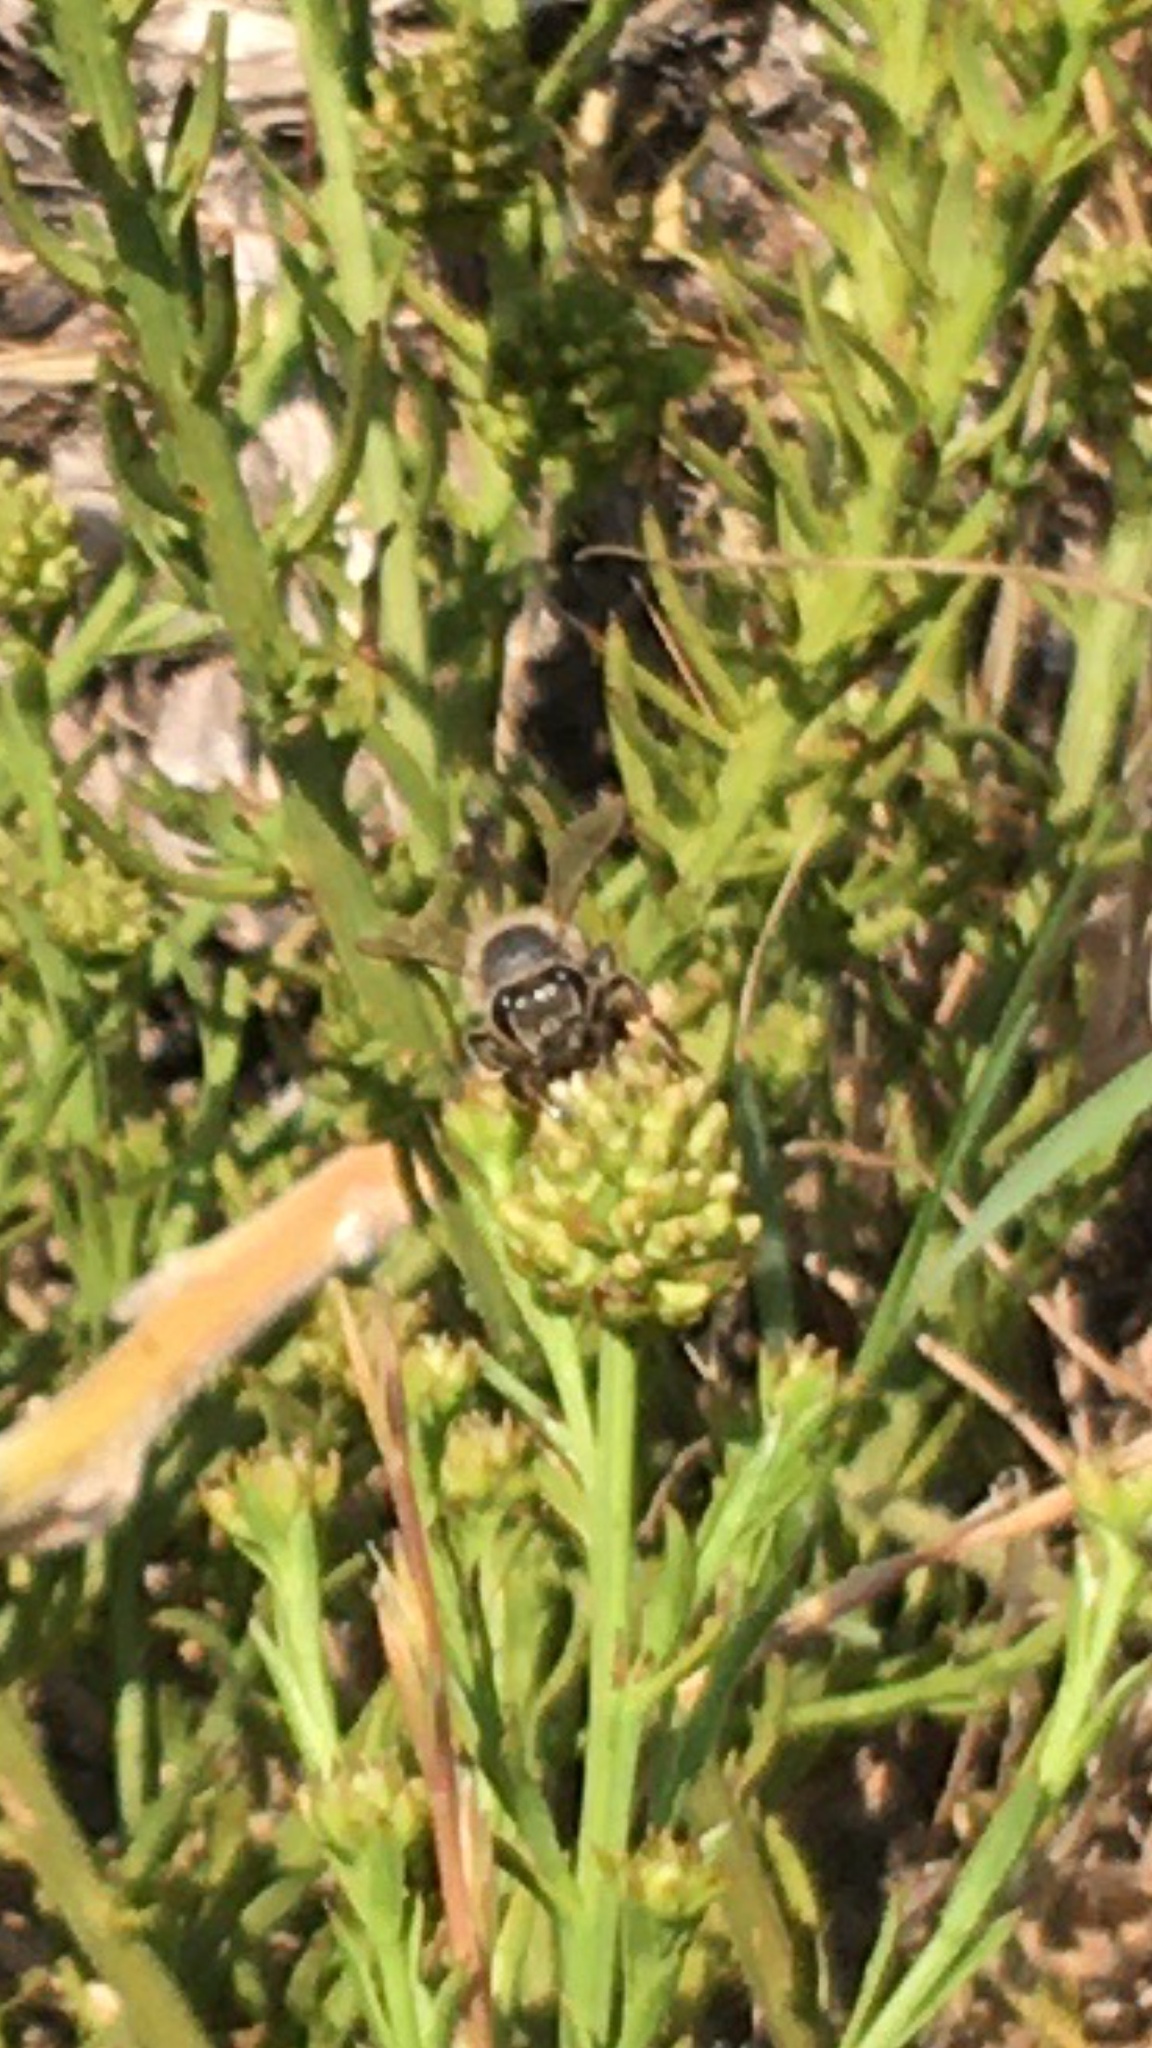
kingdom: Animalia
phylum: Arthropoda
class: Insecta
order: Hymenoptera
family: Apidae
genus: Apis
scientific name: Apis mellifera
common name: Honey bee
